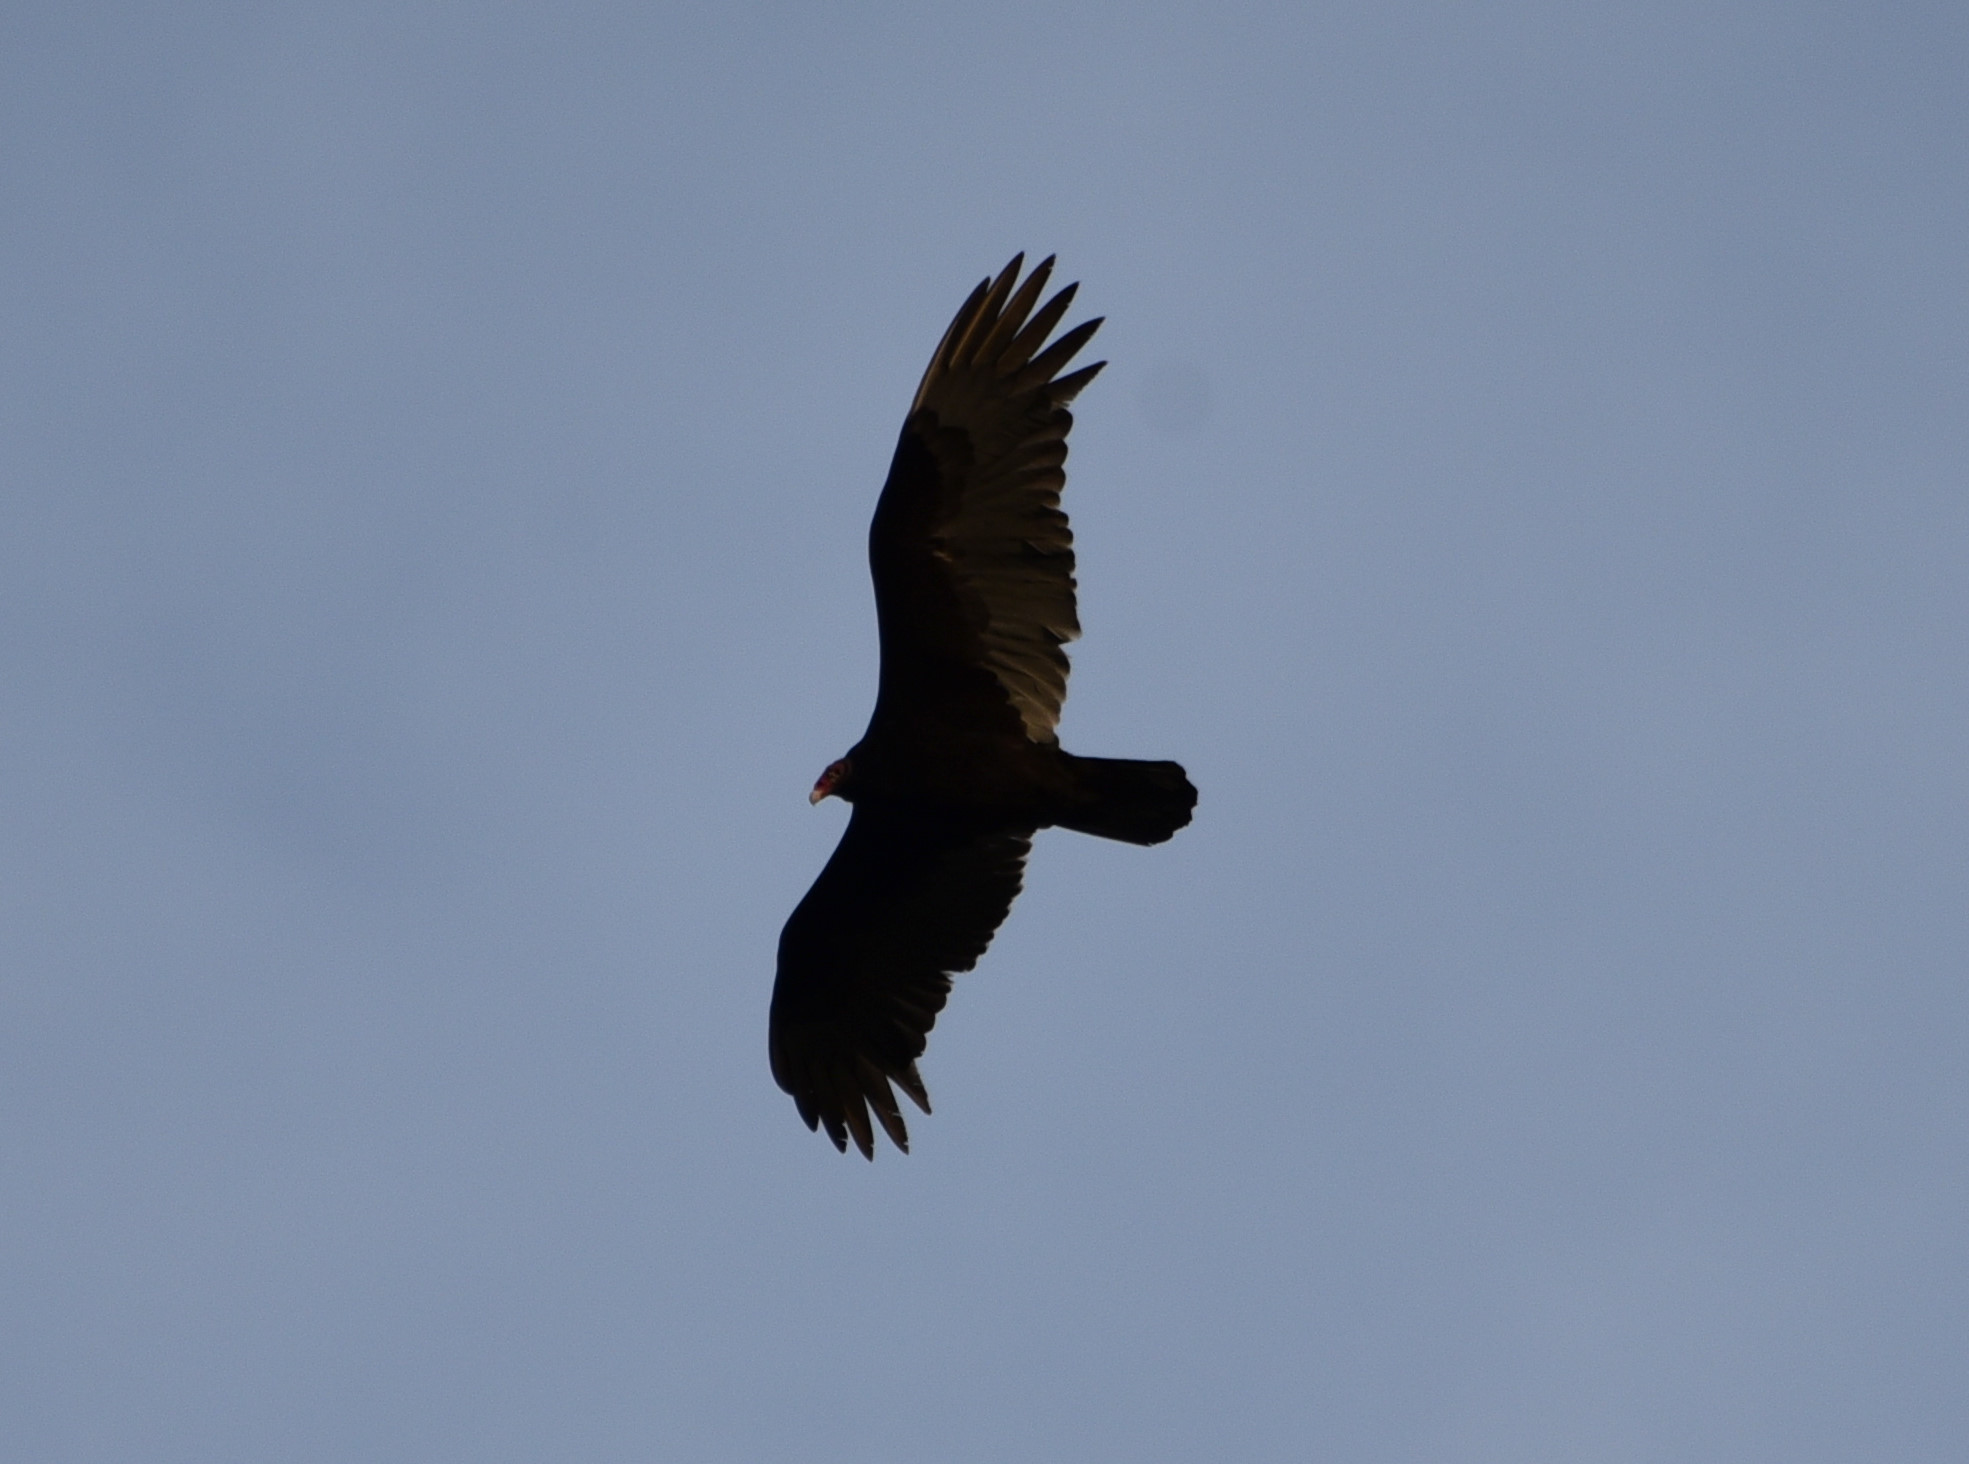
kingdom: Animalia
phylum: Chordata
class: Aves
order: Accipitriformes
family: Cathartidae
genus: Cathartes
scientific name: Cathartes aura
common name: Turkey vulture
